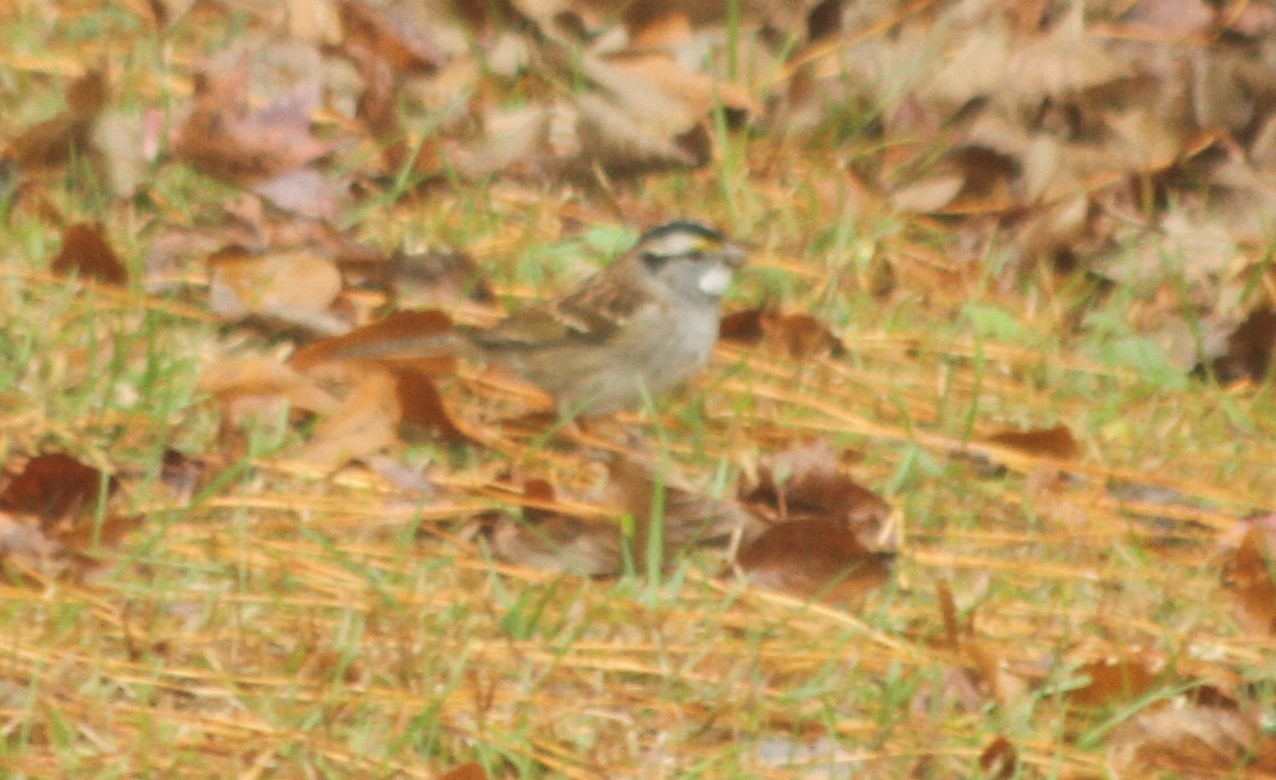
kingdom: Animalia
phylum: Chordata
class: Aves
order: Passeriformes
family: Passerellidae
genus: Zonotrichia
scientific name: Zonotrichia albicollis
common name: White-throated sparrow
